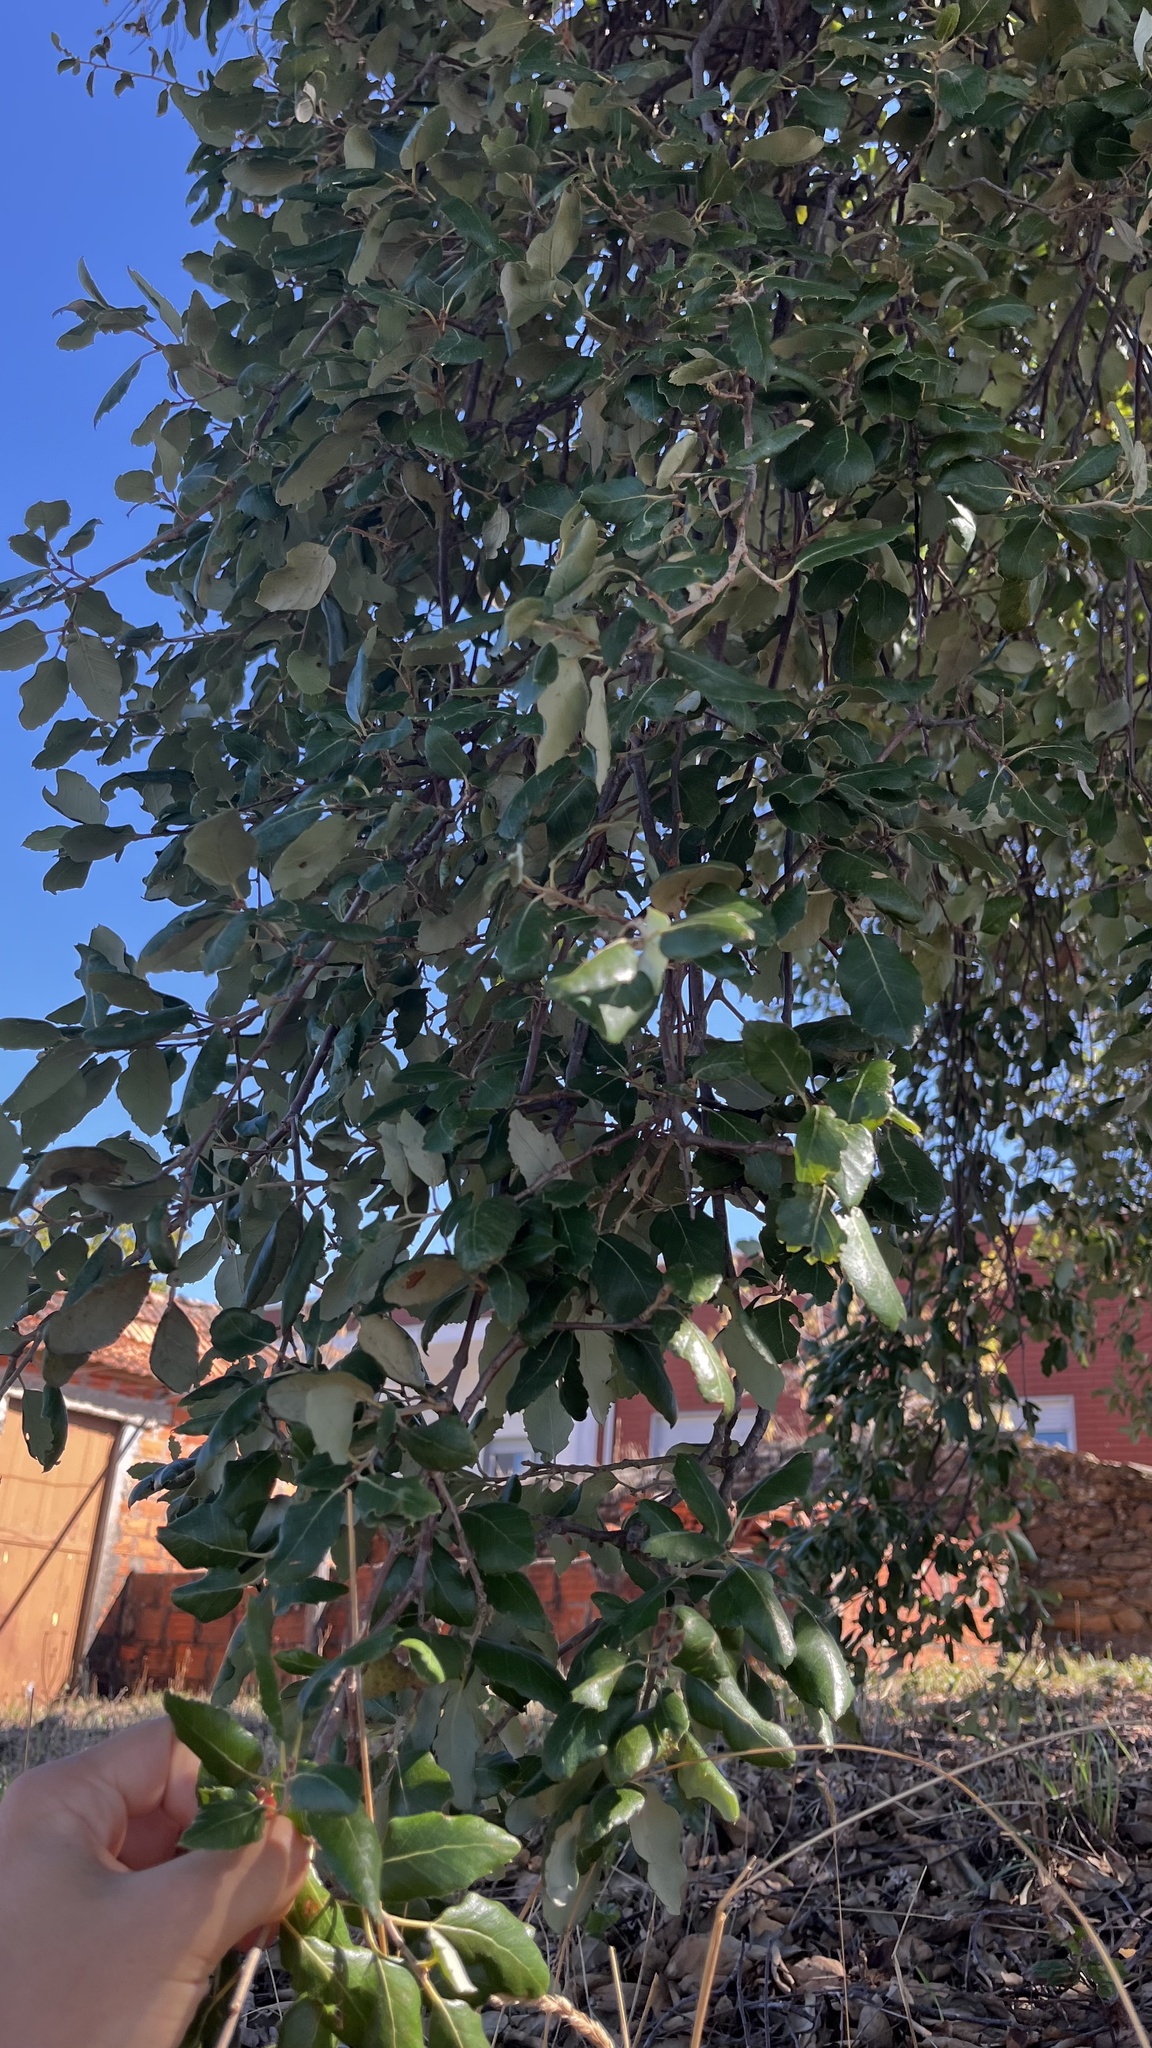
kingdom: Plantae
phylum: Tracheophyta
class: Magnoliopsida
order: Fagales
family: Fagaceae
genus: Quercus
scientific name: Quercus suber
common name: Cork oak
